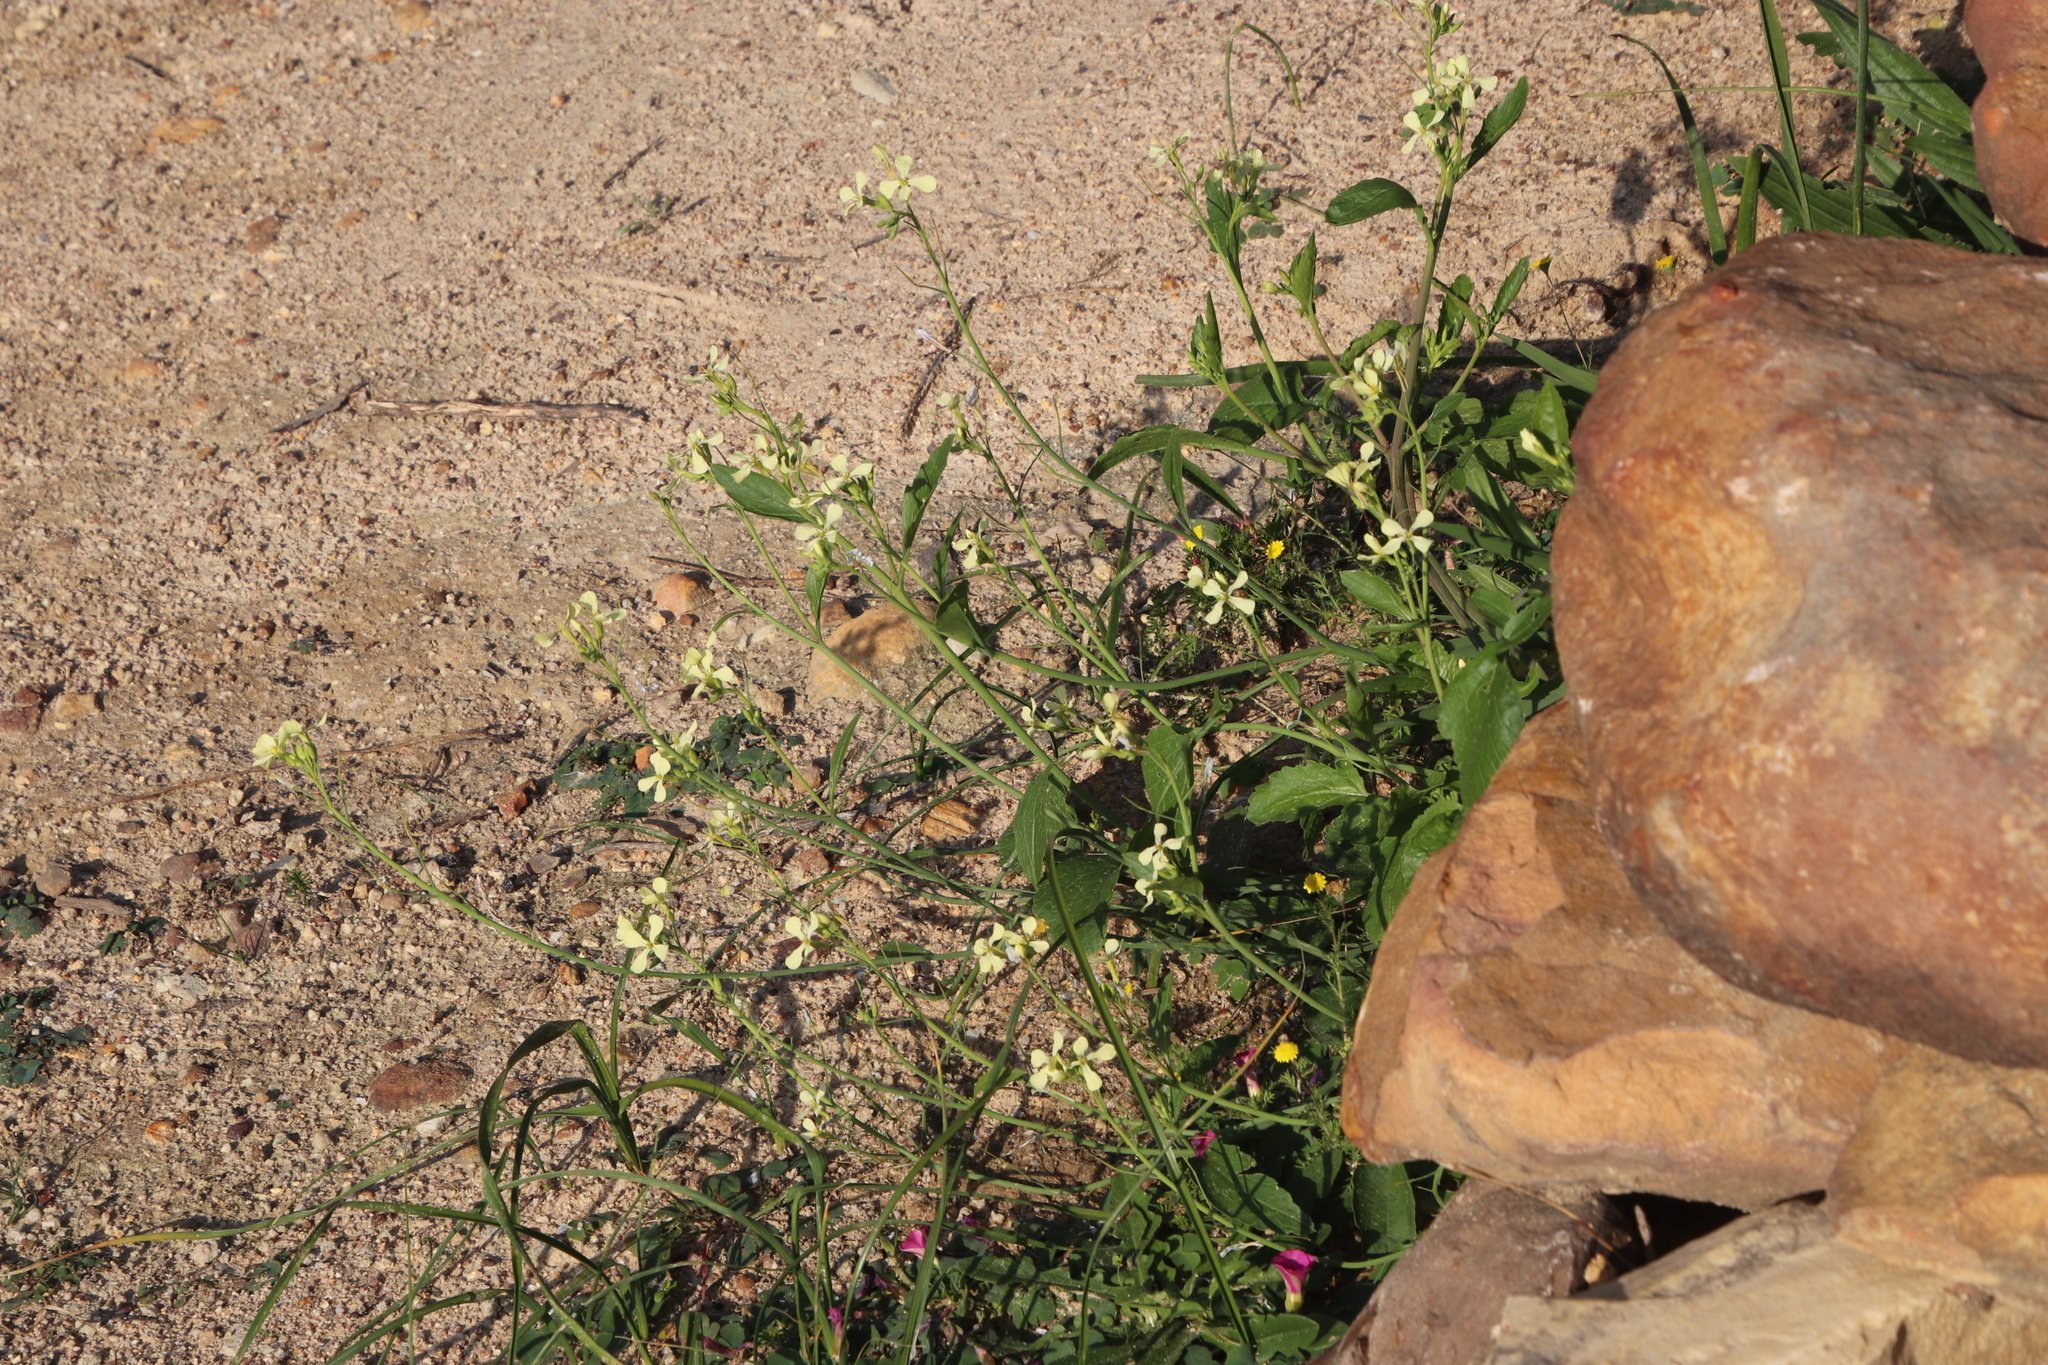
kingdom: Plantae
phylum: Tracheophyta
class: Magnoliopsida
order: Brassicales
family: Brassicaceae
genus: Raphanus
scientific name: Raphanus raphanistrum
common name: Wild radish
